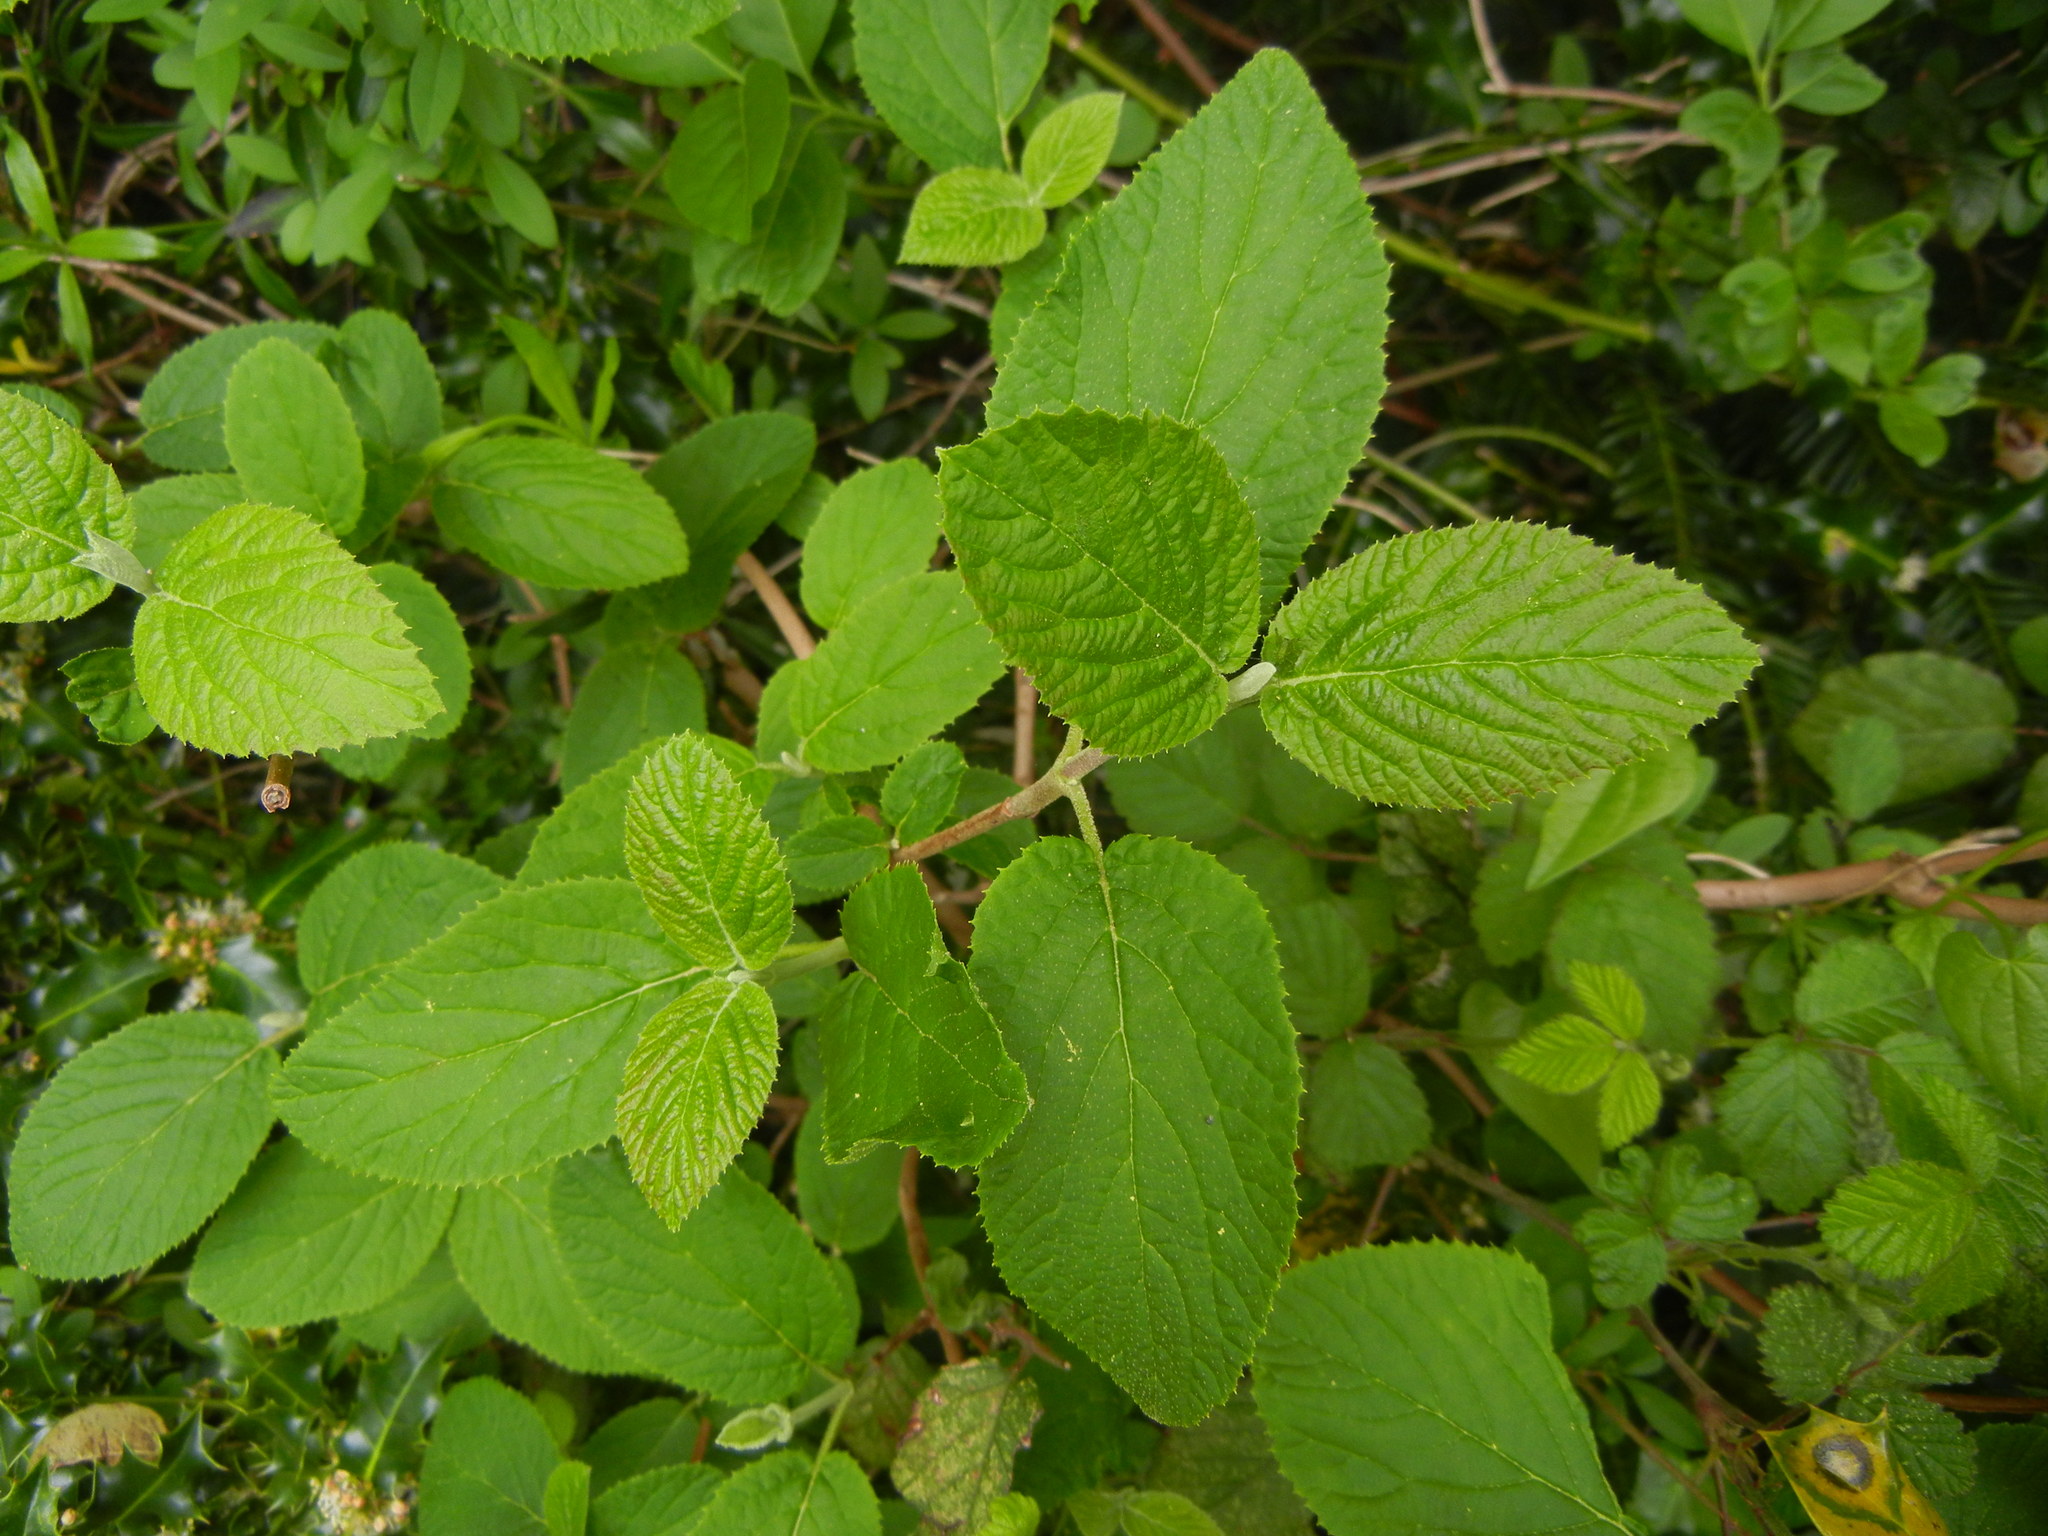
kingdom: Plantae
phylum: Tracheophyta
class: Magnoliopsida
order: Dipsacales
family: Viburnaceae
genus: Viburnum
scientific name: Viburnum lantana
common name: Wayfaring tree
